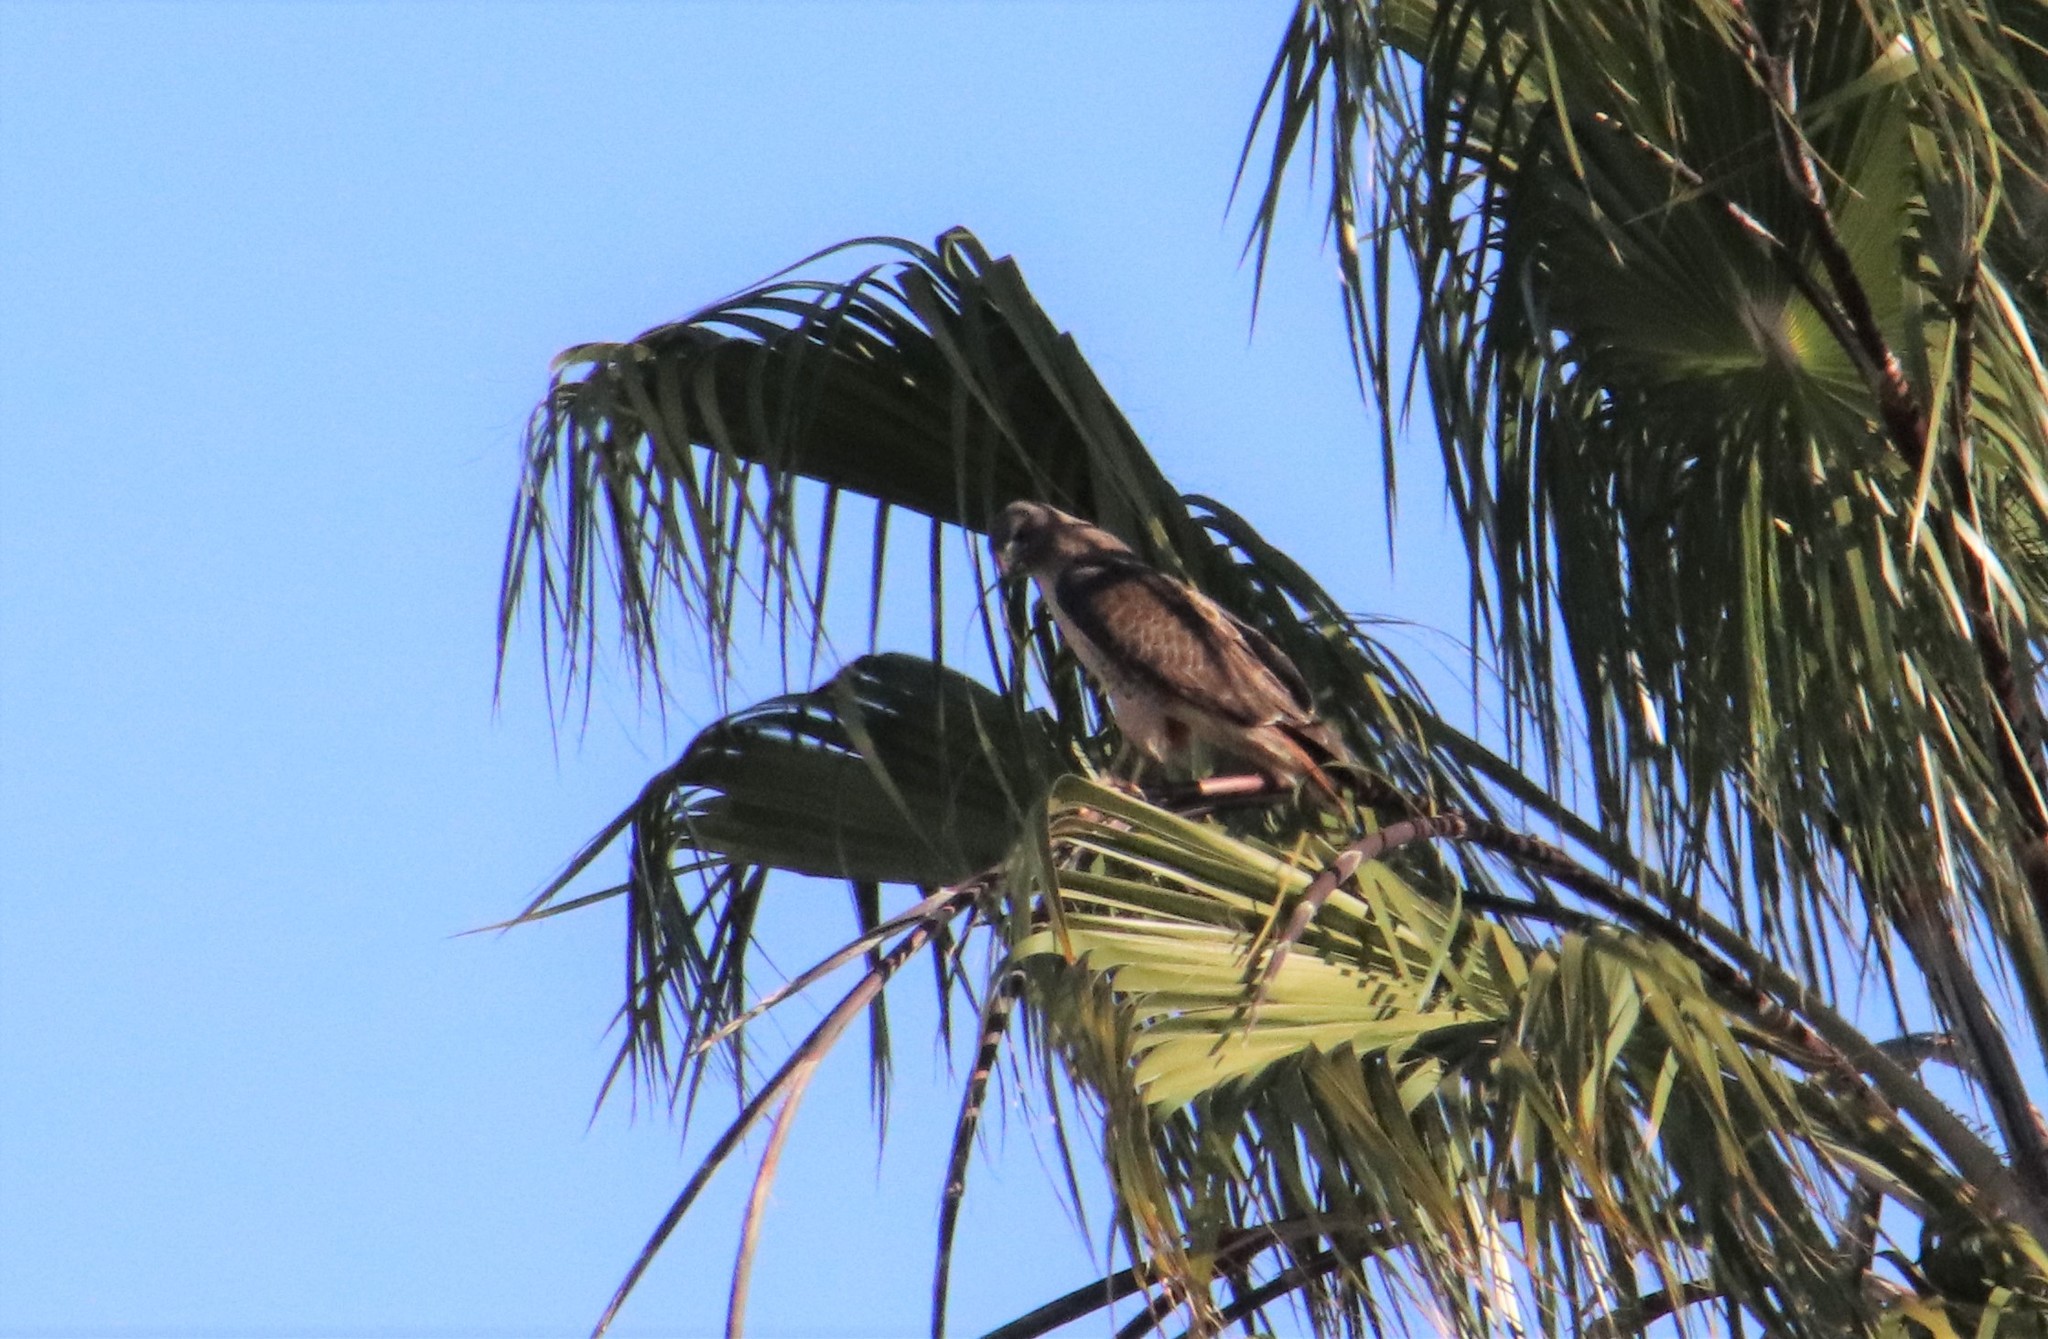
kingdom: Animalia
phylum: Chordata
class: Aves
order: Accipitriformes
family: Accipitridae
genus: Buteo
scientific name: Buteo jamaicensis
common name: Red-tailed hawk
